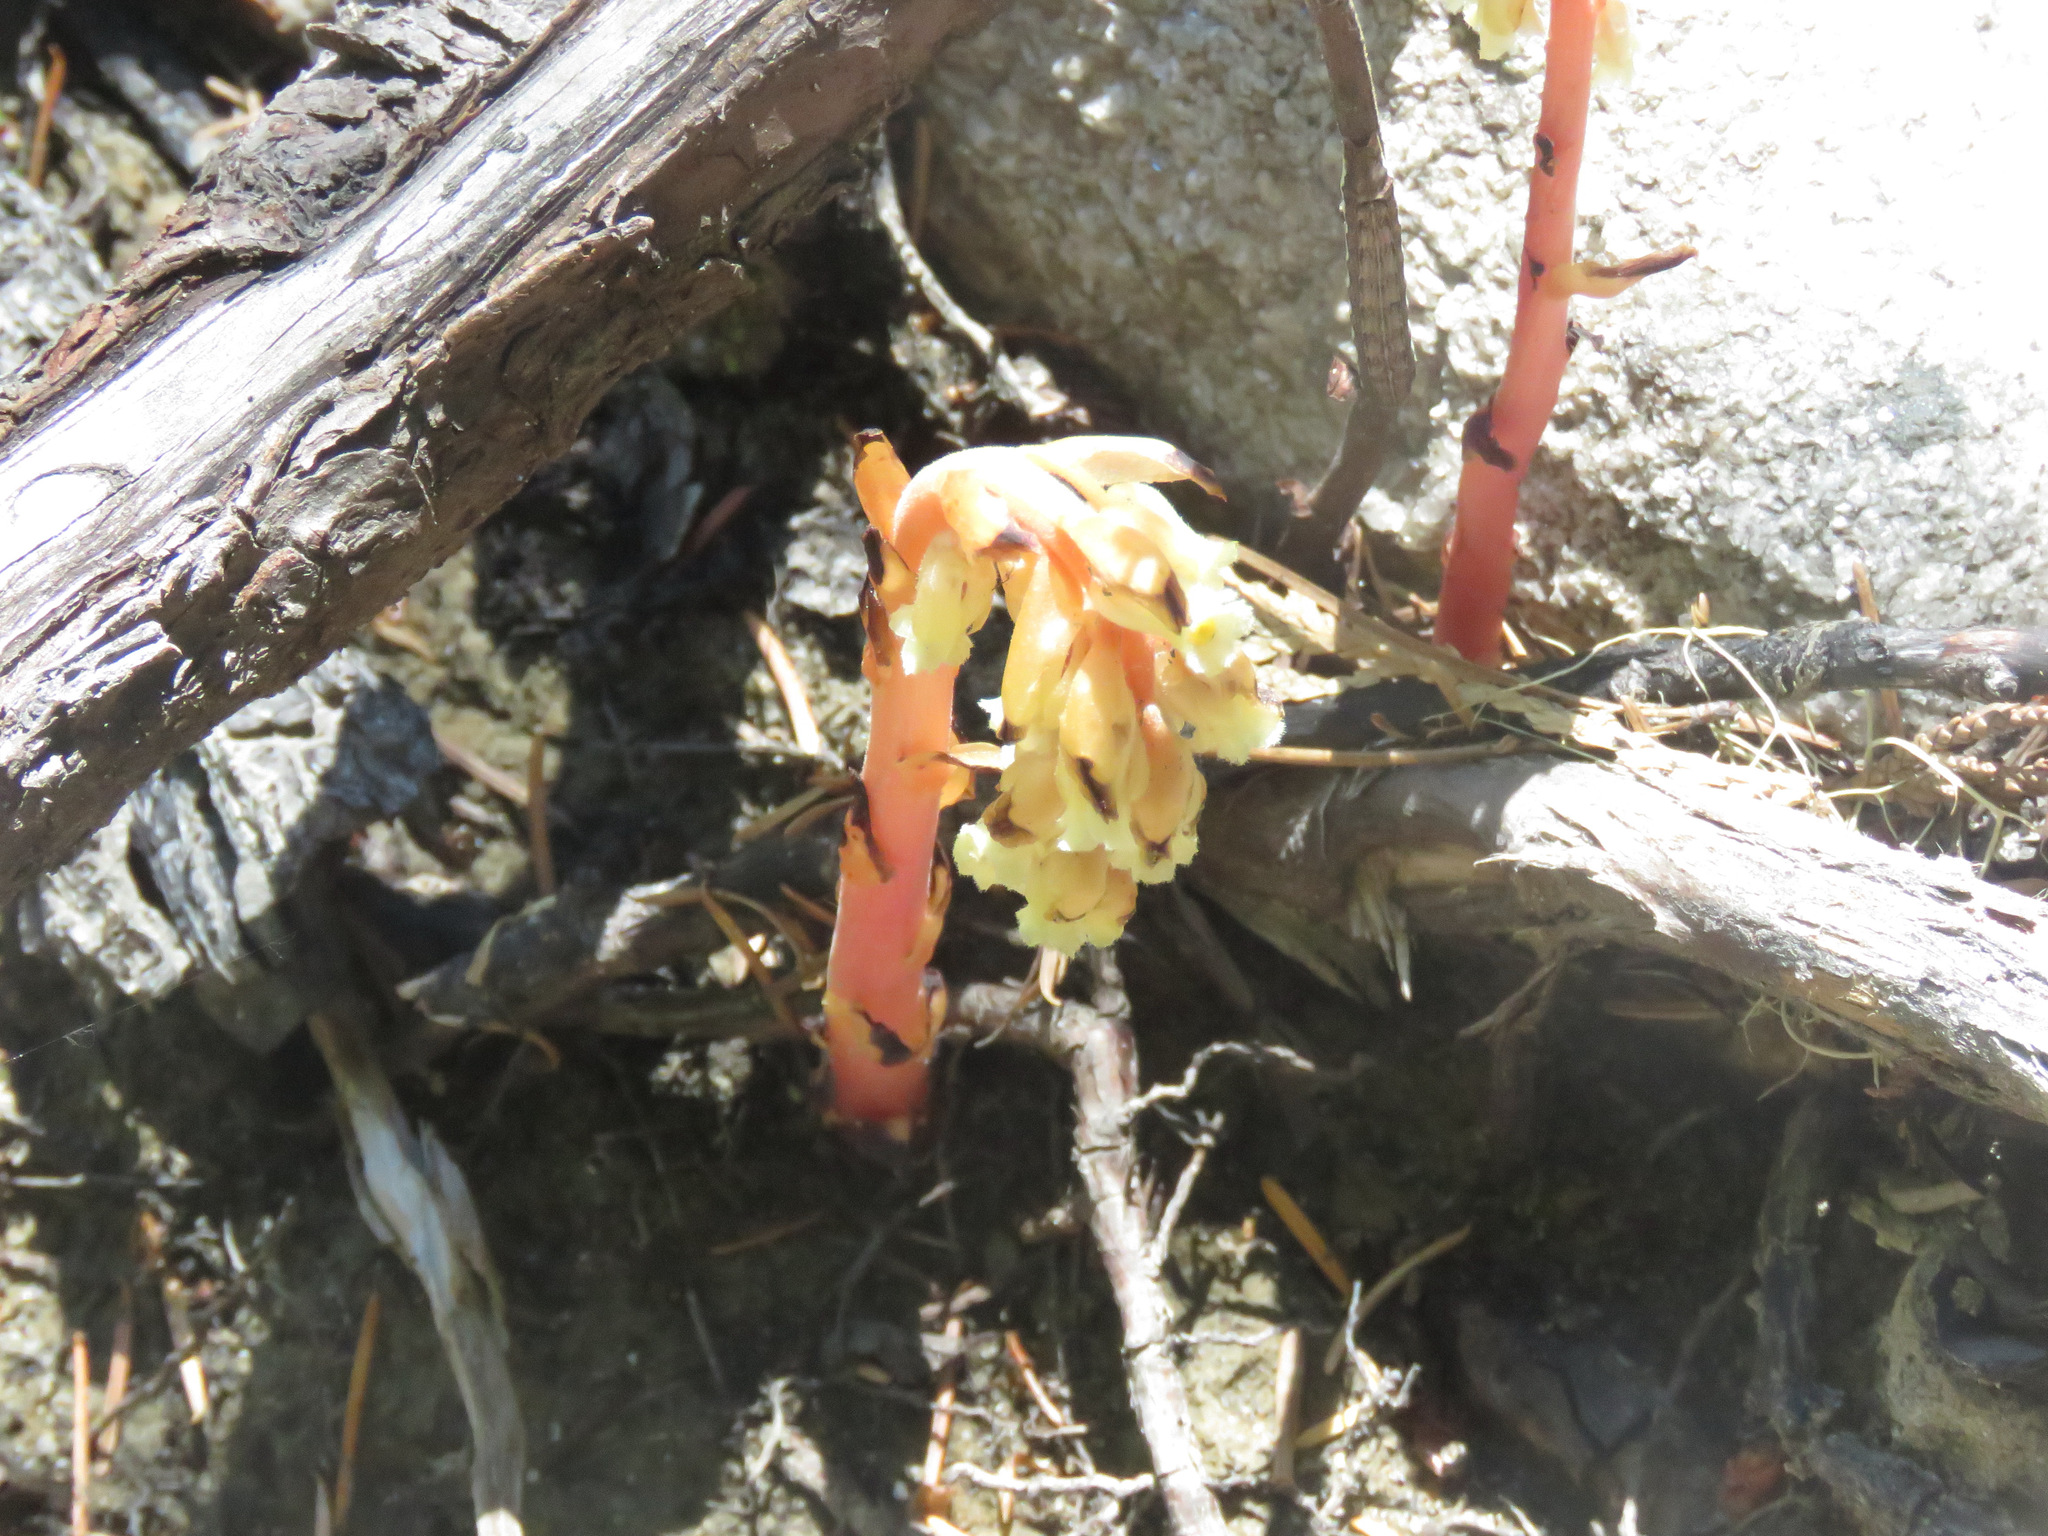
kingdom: Plantae
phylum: Tracheophyta
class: Magnoliopsida
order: Ericales
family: Ericaceae
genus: Hypopitys
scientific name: Hypopitys monotropa
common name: Yellow bird's-nest
